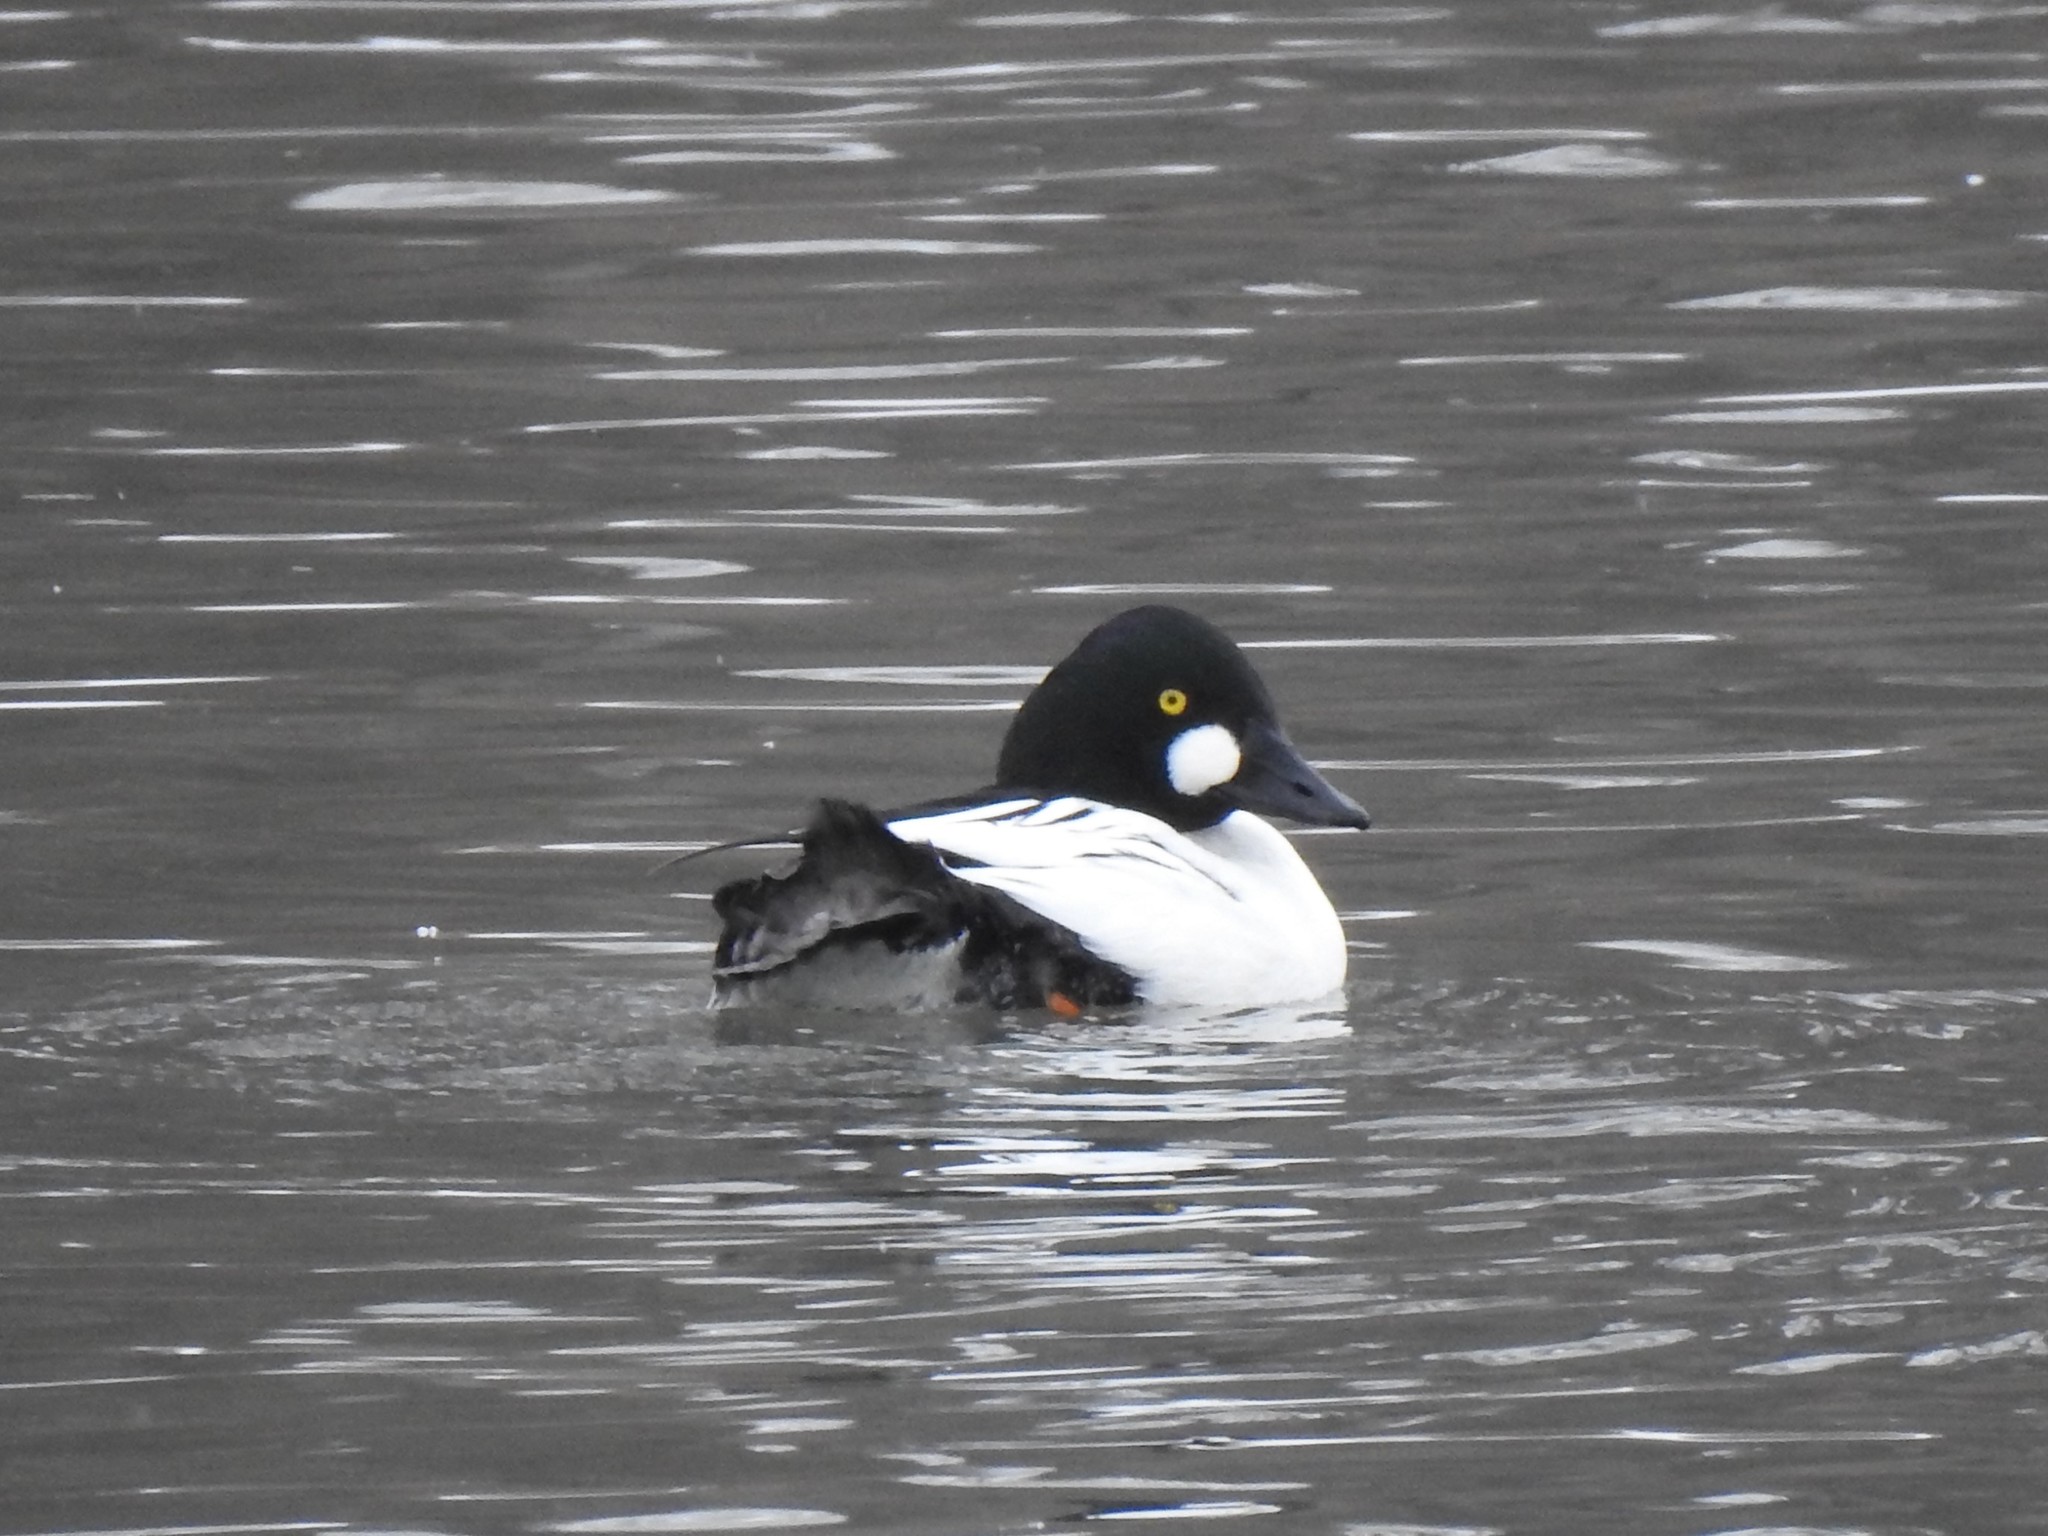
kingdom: Animalia
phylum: Chordata
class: Aves
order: Anseriformes
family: Anatidae
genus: Bucephala
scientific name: Bucephala clangula
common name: Common goldeneye
